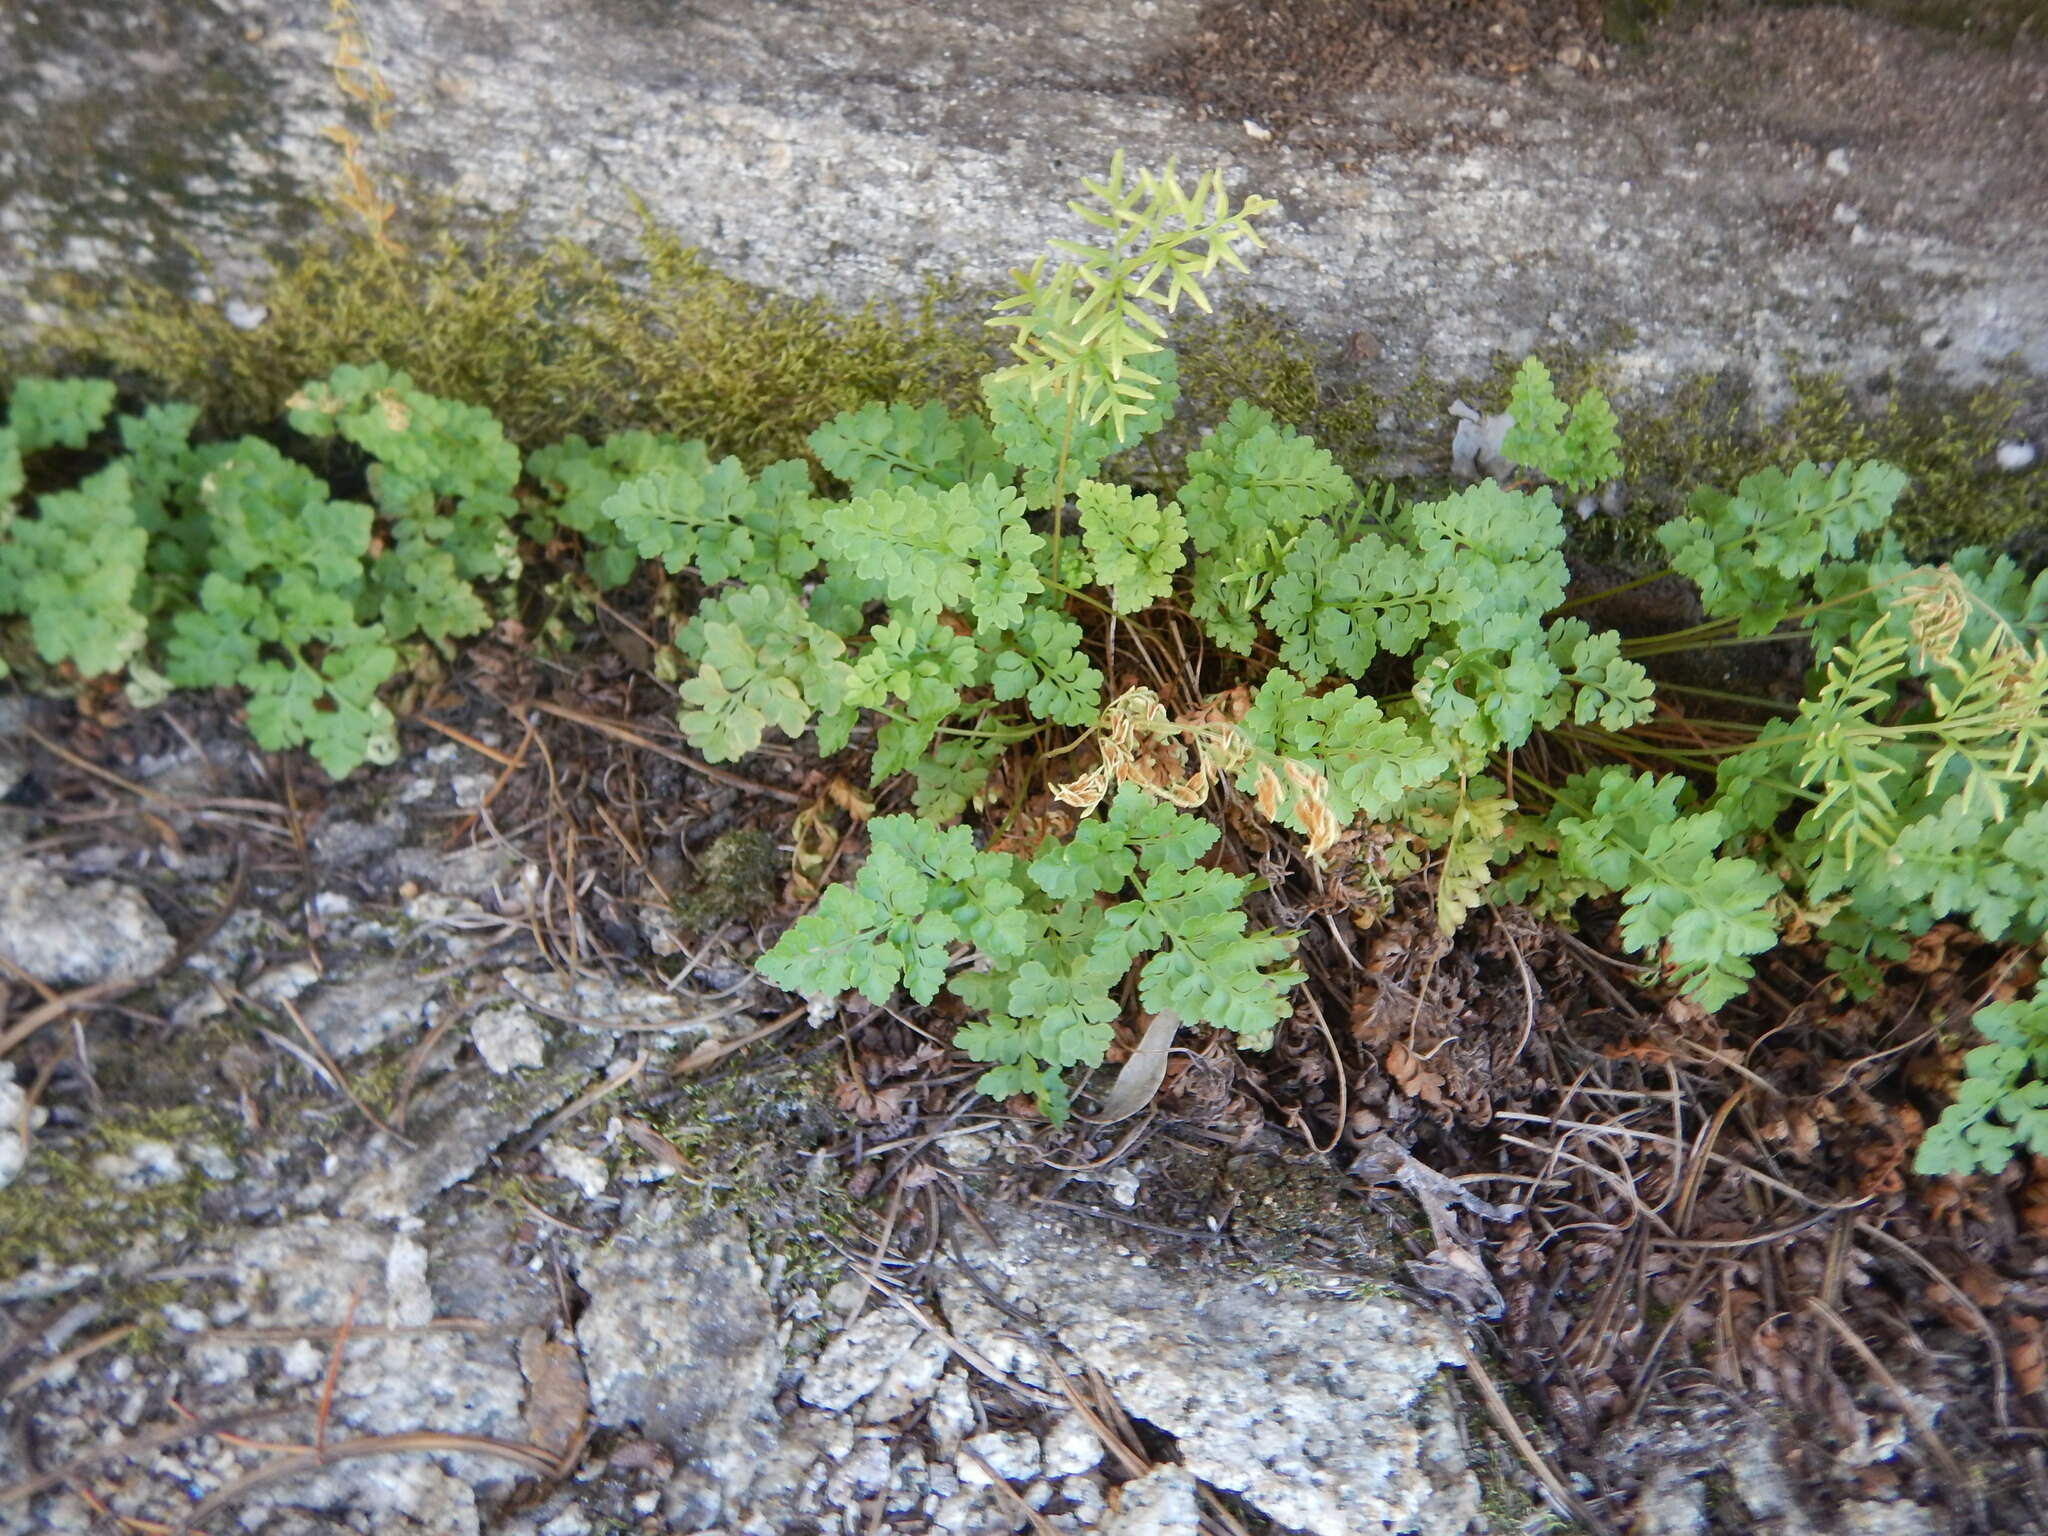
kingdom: Plantae
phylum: Tracheophyta
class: Polypodiopsida
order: Polypodiales
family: Pteridaceae
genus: Cryptogramma
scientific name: Cryptogramma acrostichoides
